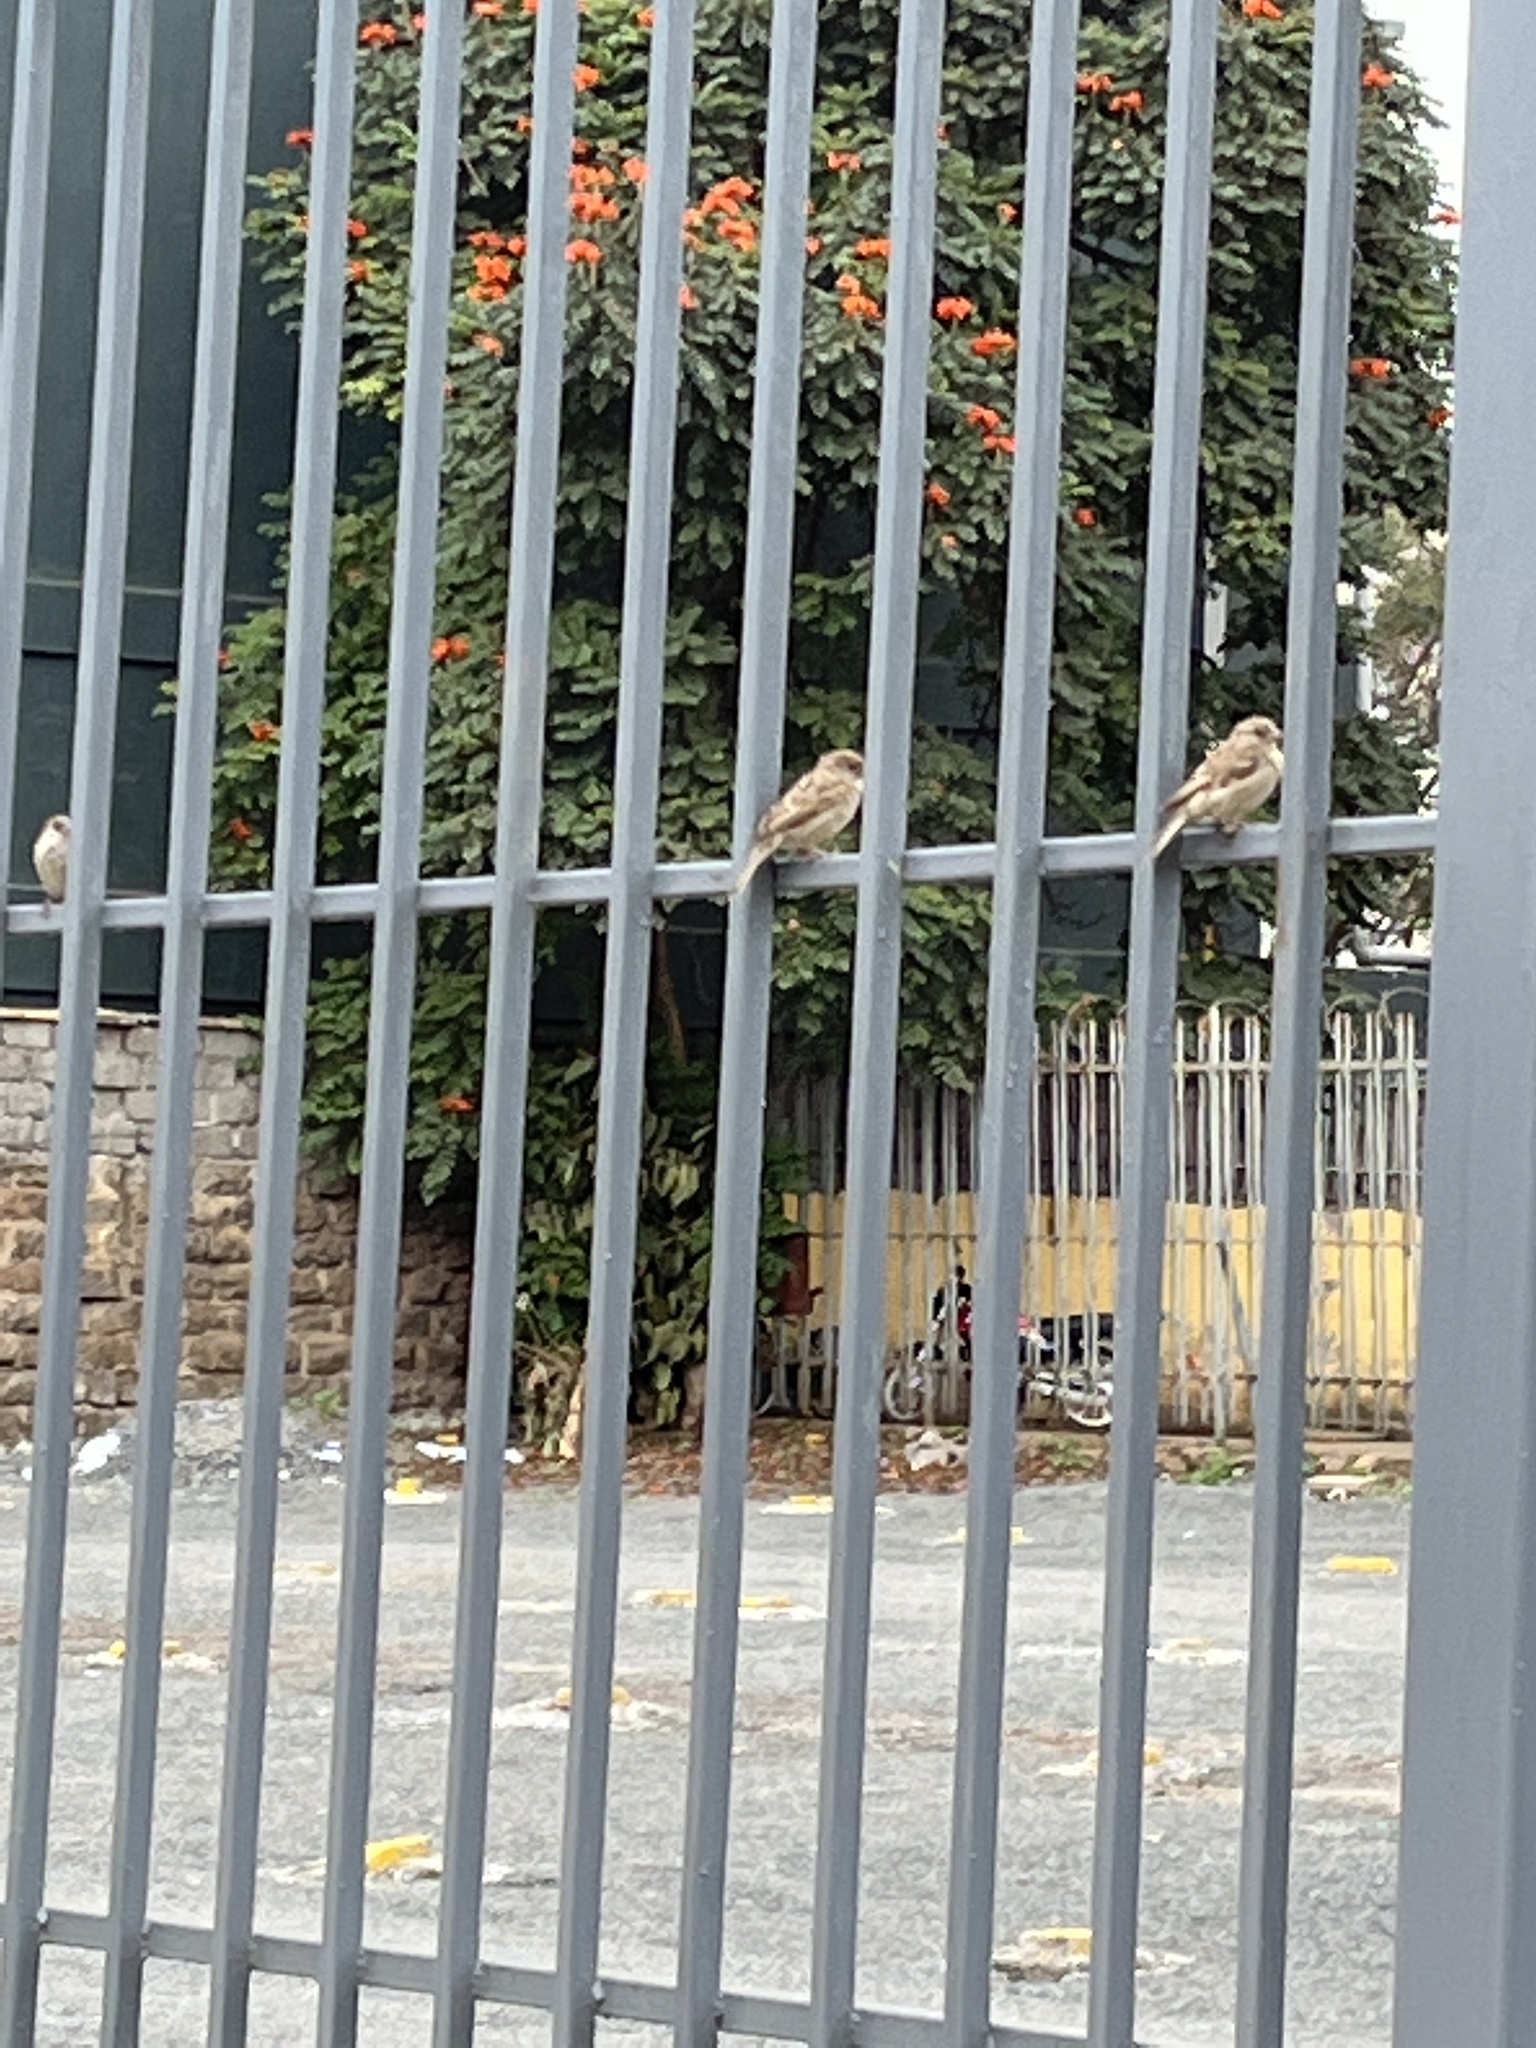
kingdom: Animalia
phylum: Chordata
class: Aves
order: Passeriformes
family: Passeridae
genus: Passer
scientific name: Passer domesticus
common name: House sparrow
